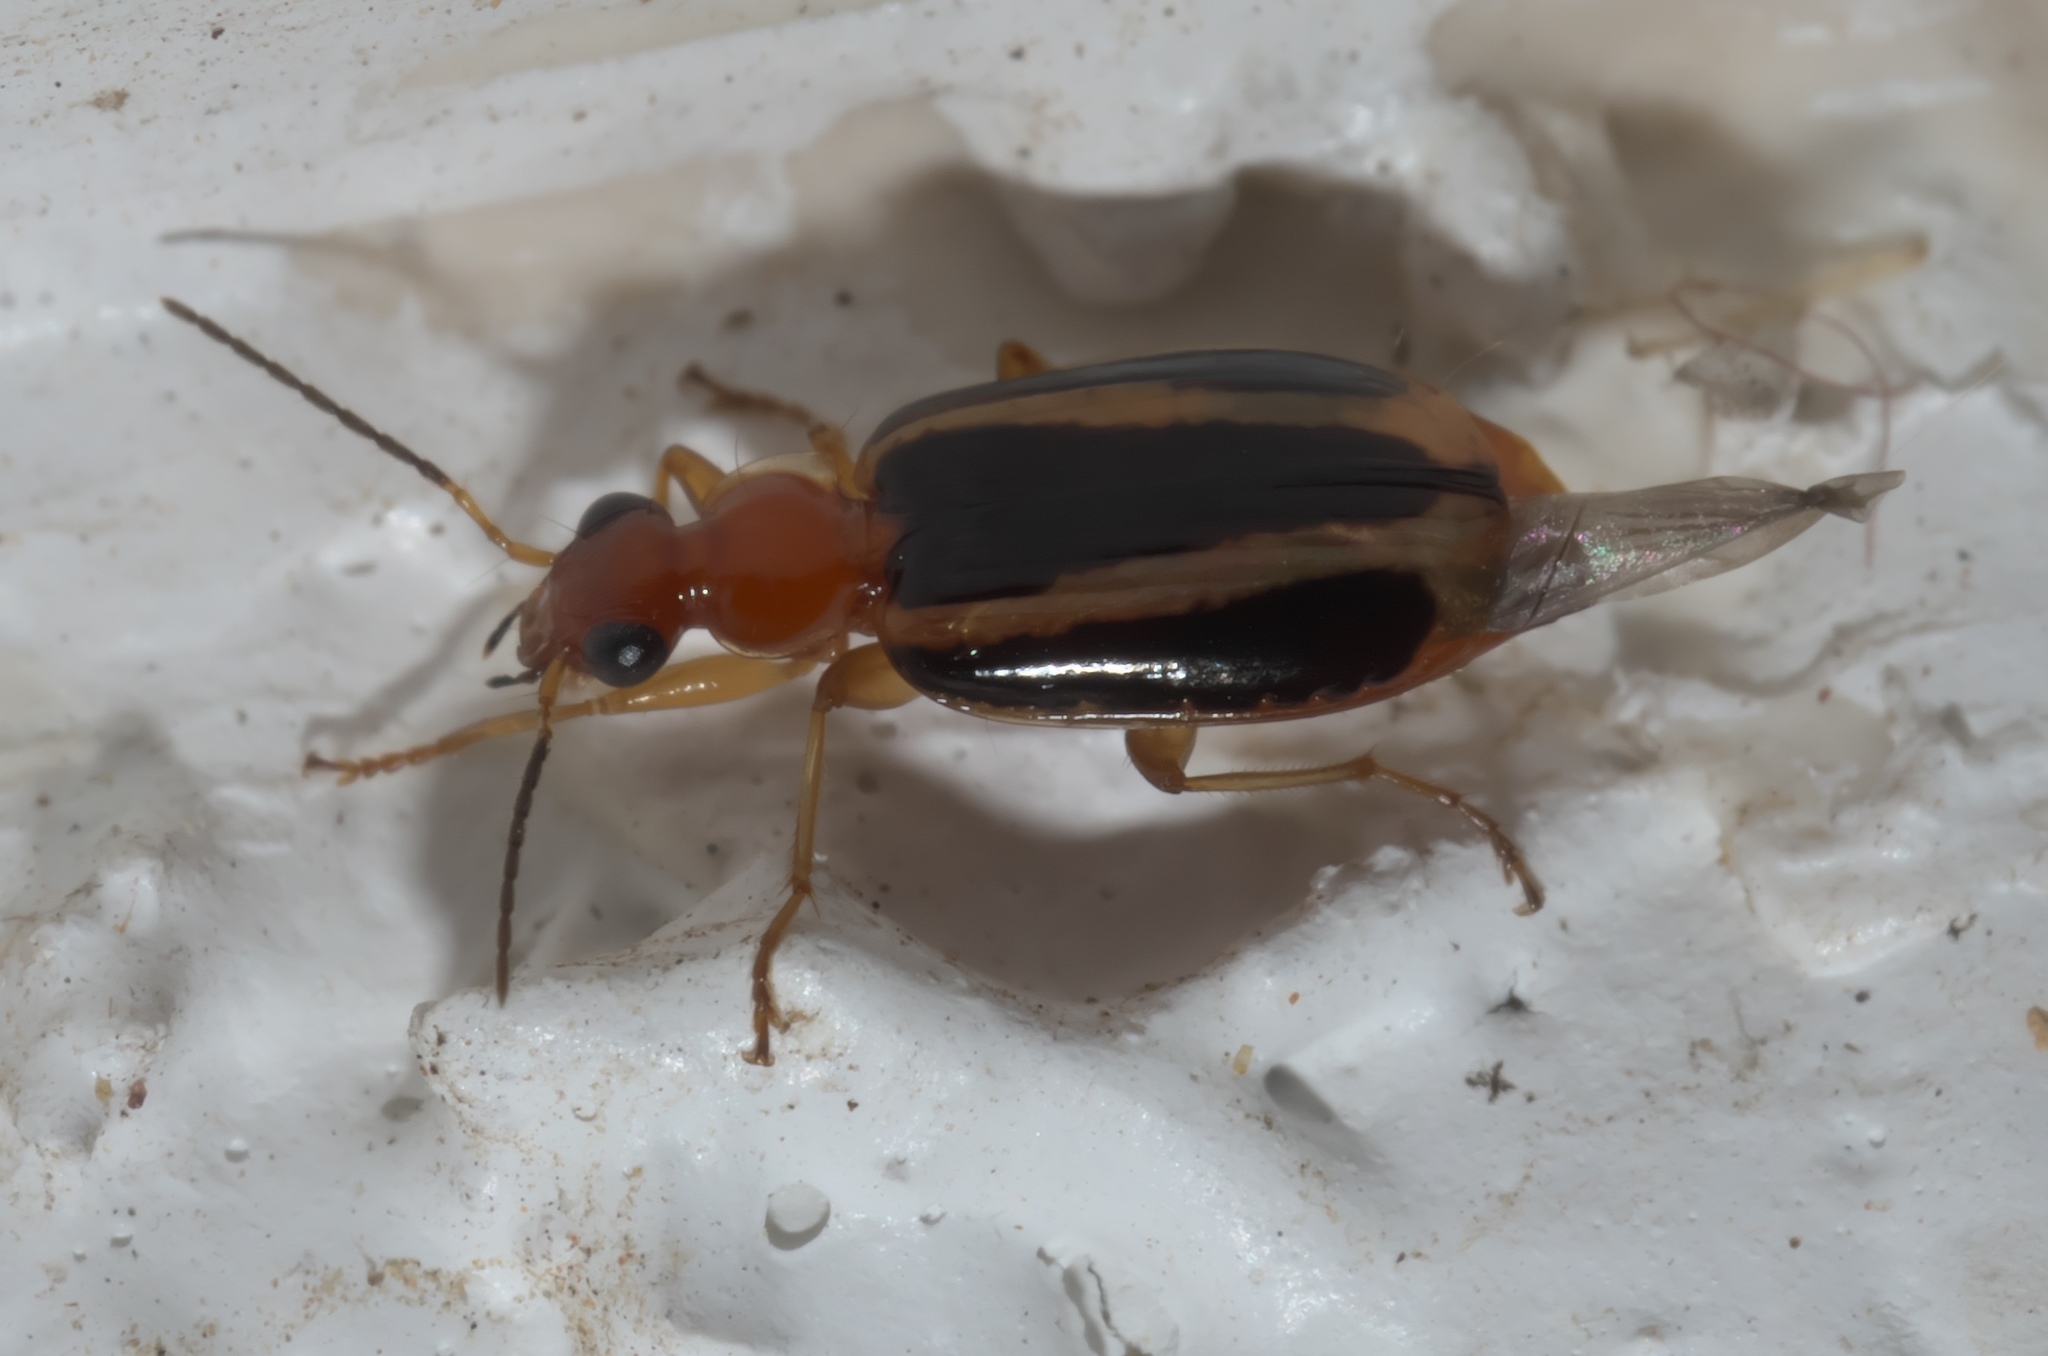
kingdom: Animalia
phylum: Arthropoda
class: Insecta
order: Coleoptera
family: Carabidae
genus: Lebia
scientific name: Lebia solea
